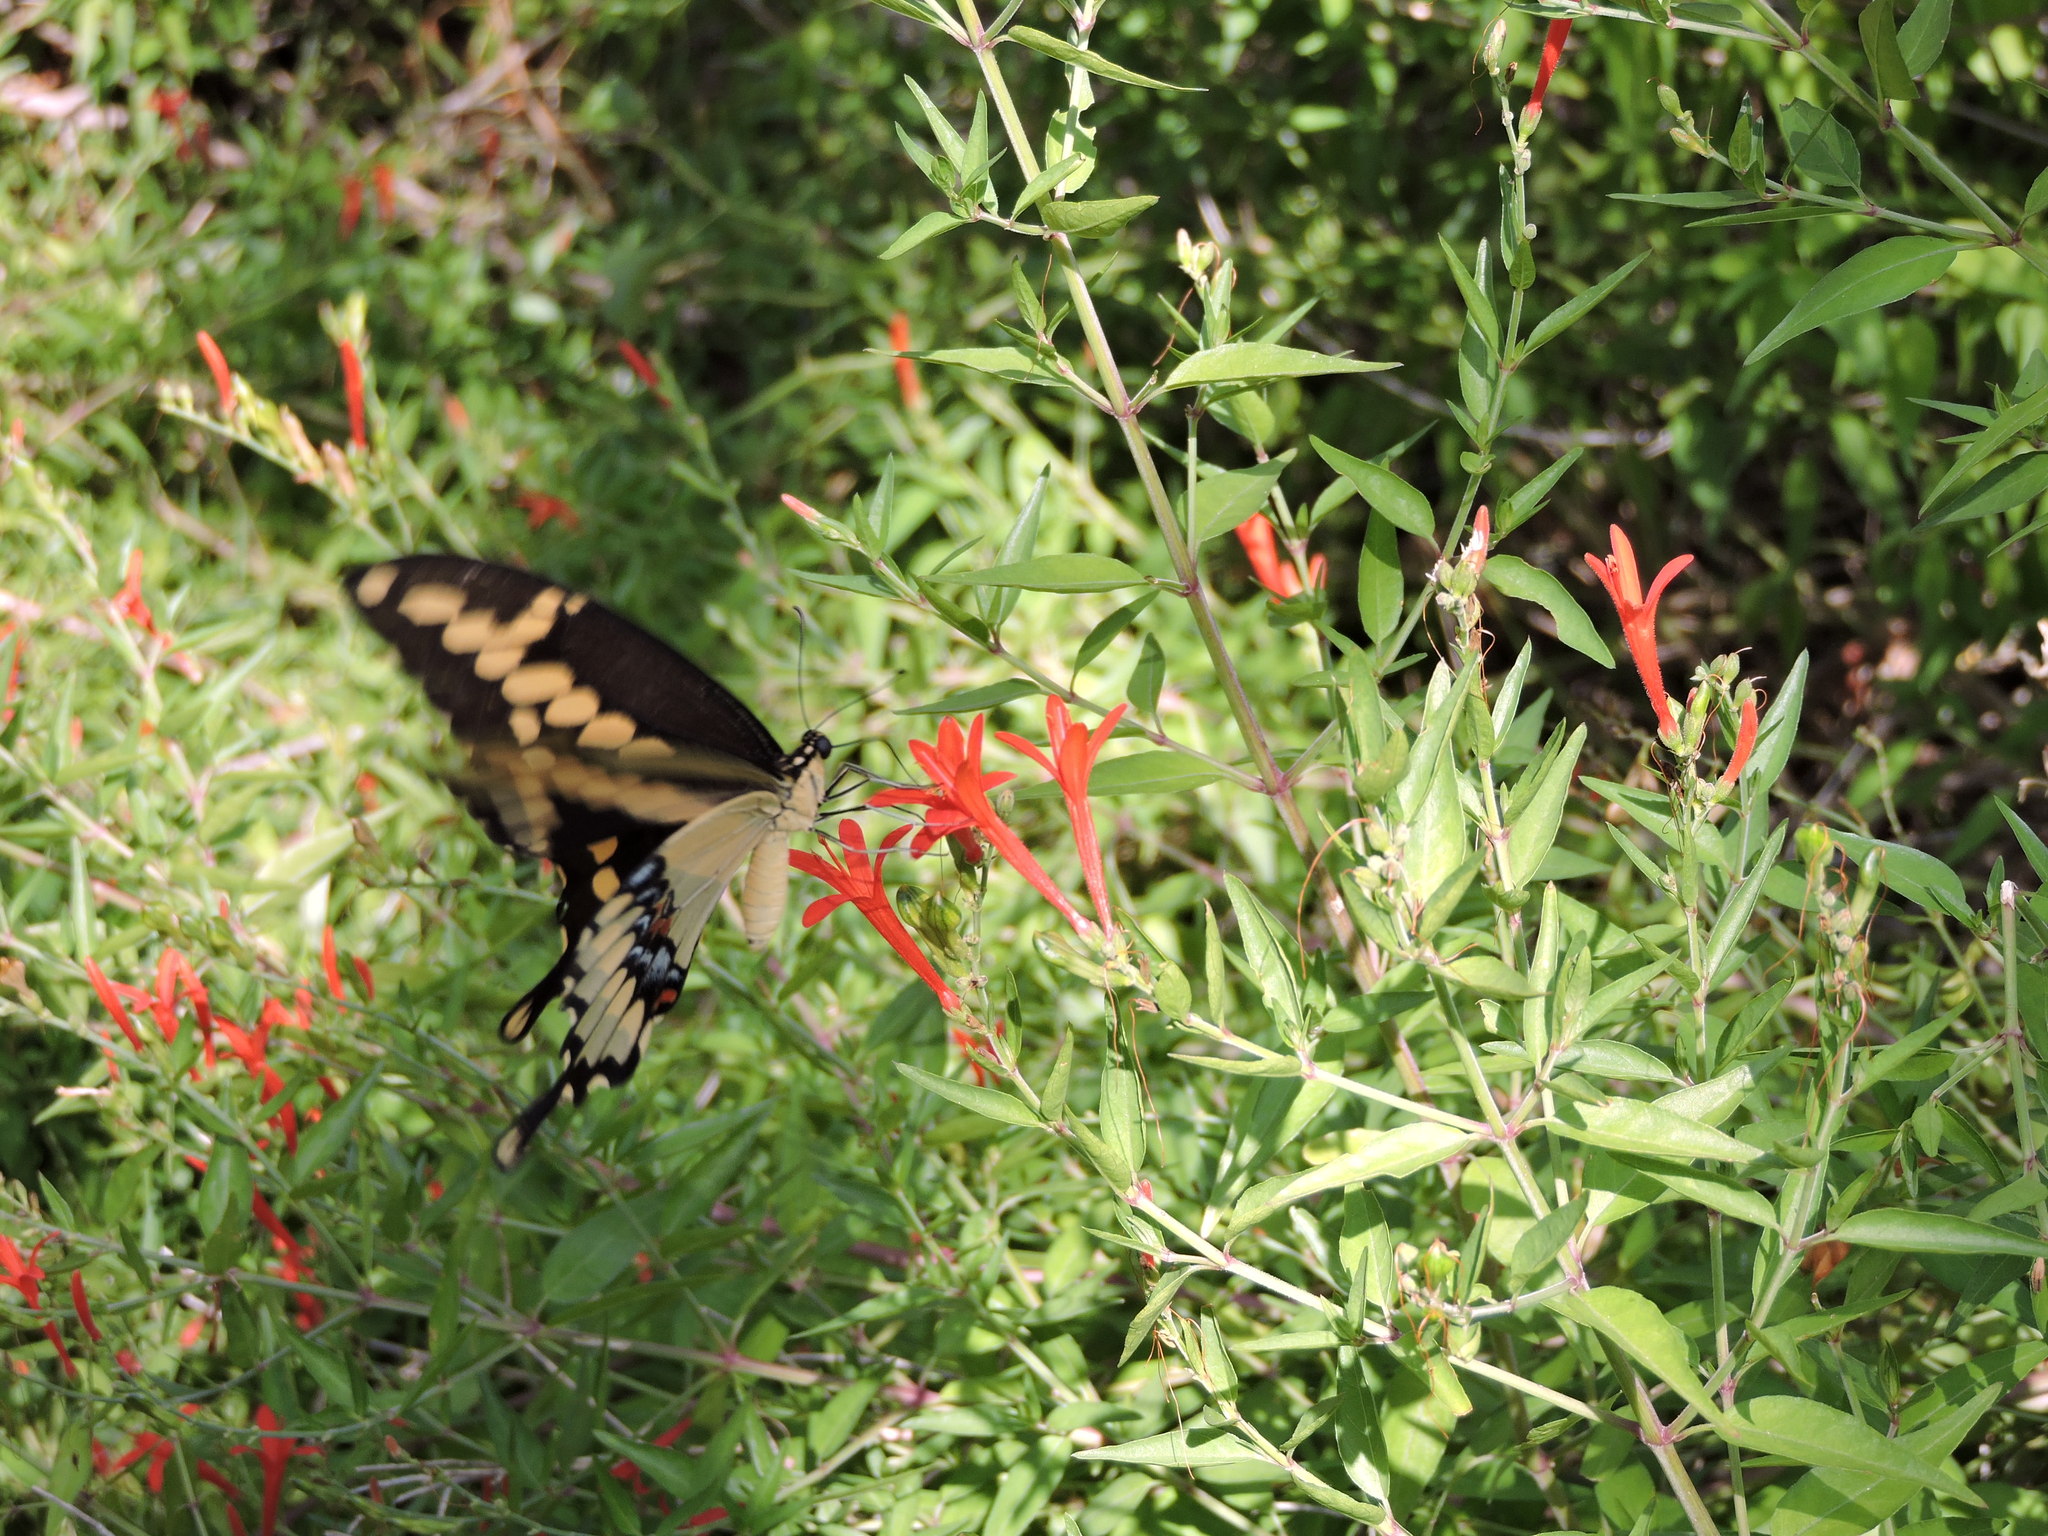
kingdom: Animalia
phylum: Arthropoda
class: Insecta
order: Lepidoptera
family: Papilionidae
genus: Papilio
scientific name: Papilio cresphontes
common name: Giant swallowtail
